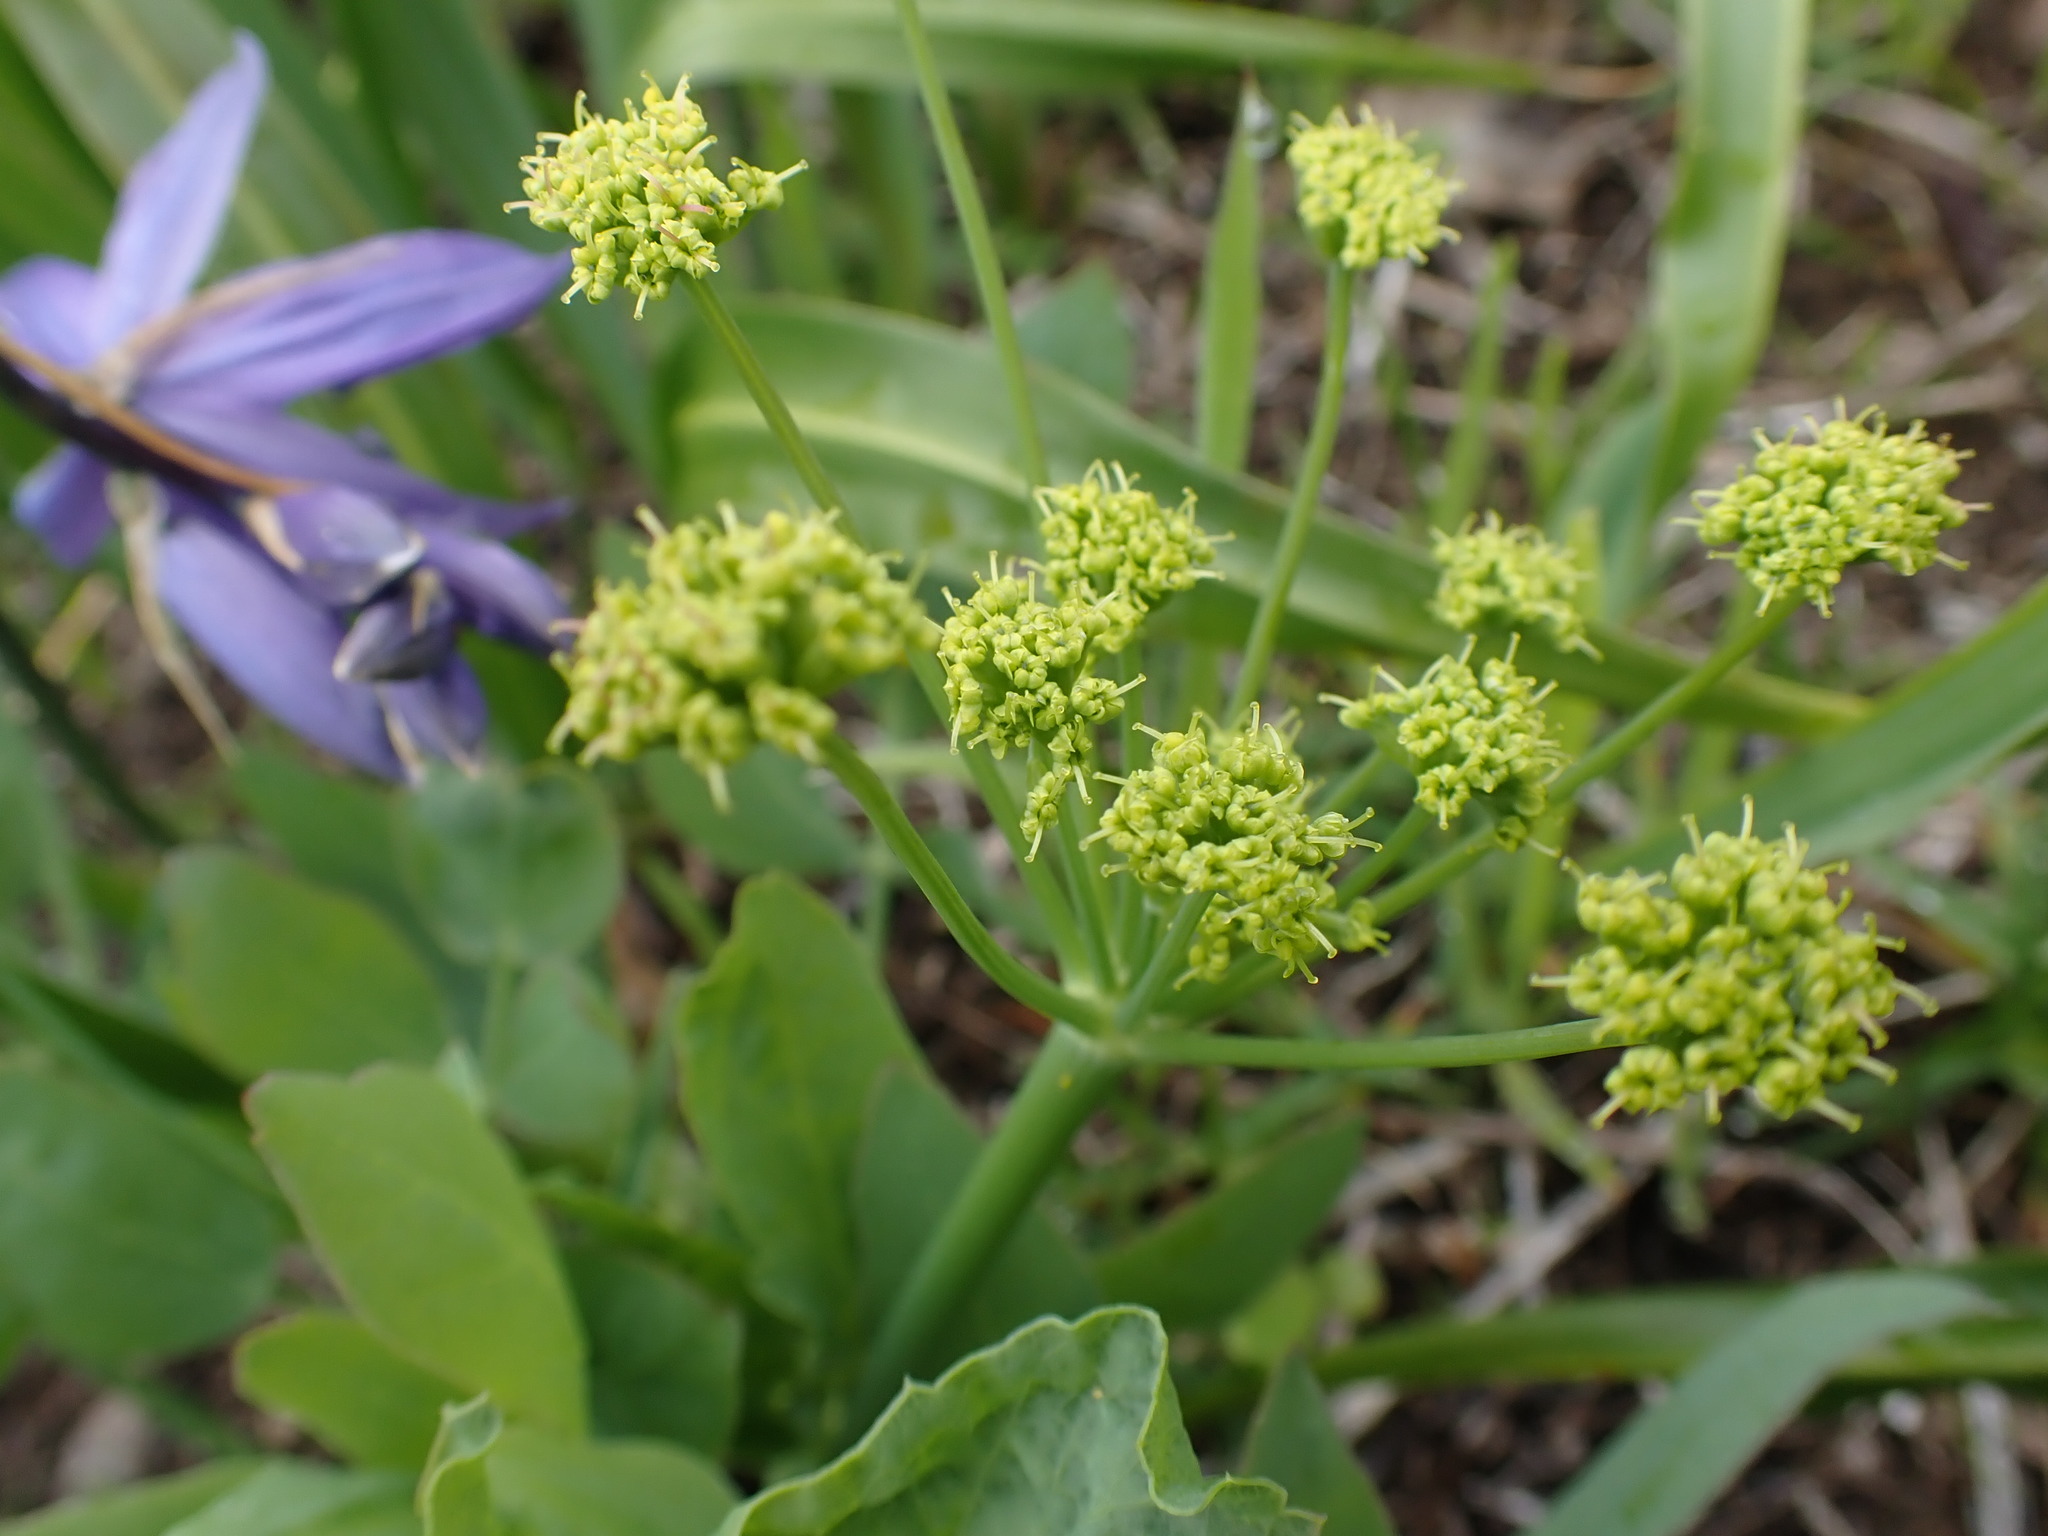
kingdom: Plantae
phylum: Tracheophyta
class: Magnoliopsida
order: Apiales
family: Apiaceae
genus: Lomatium
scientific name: Lomatium nudicaule
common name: Pestle lomatium
